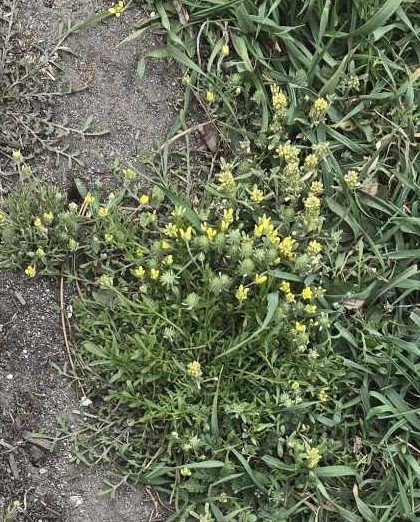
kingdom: Plantae
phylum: Tracheophyta
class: Magnoliopsida
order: Ranunculales
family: Ranunculaceae
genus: Ceratocephala
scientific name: Ceratocephala orthoceras
